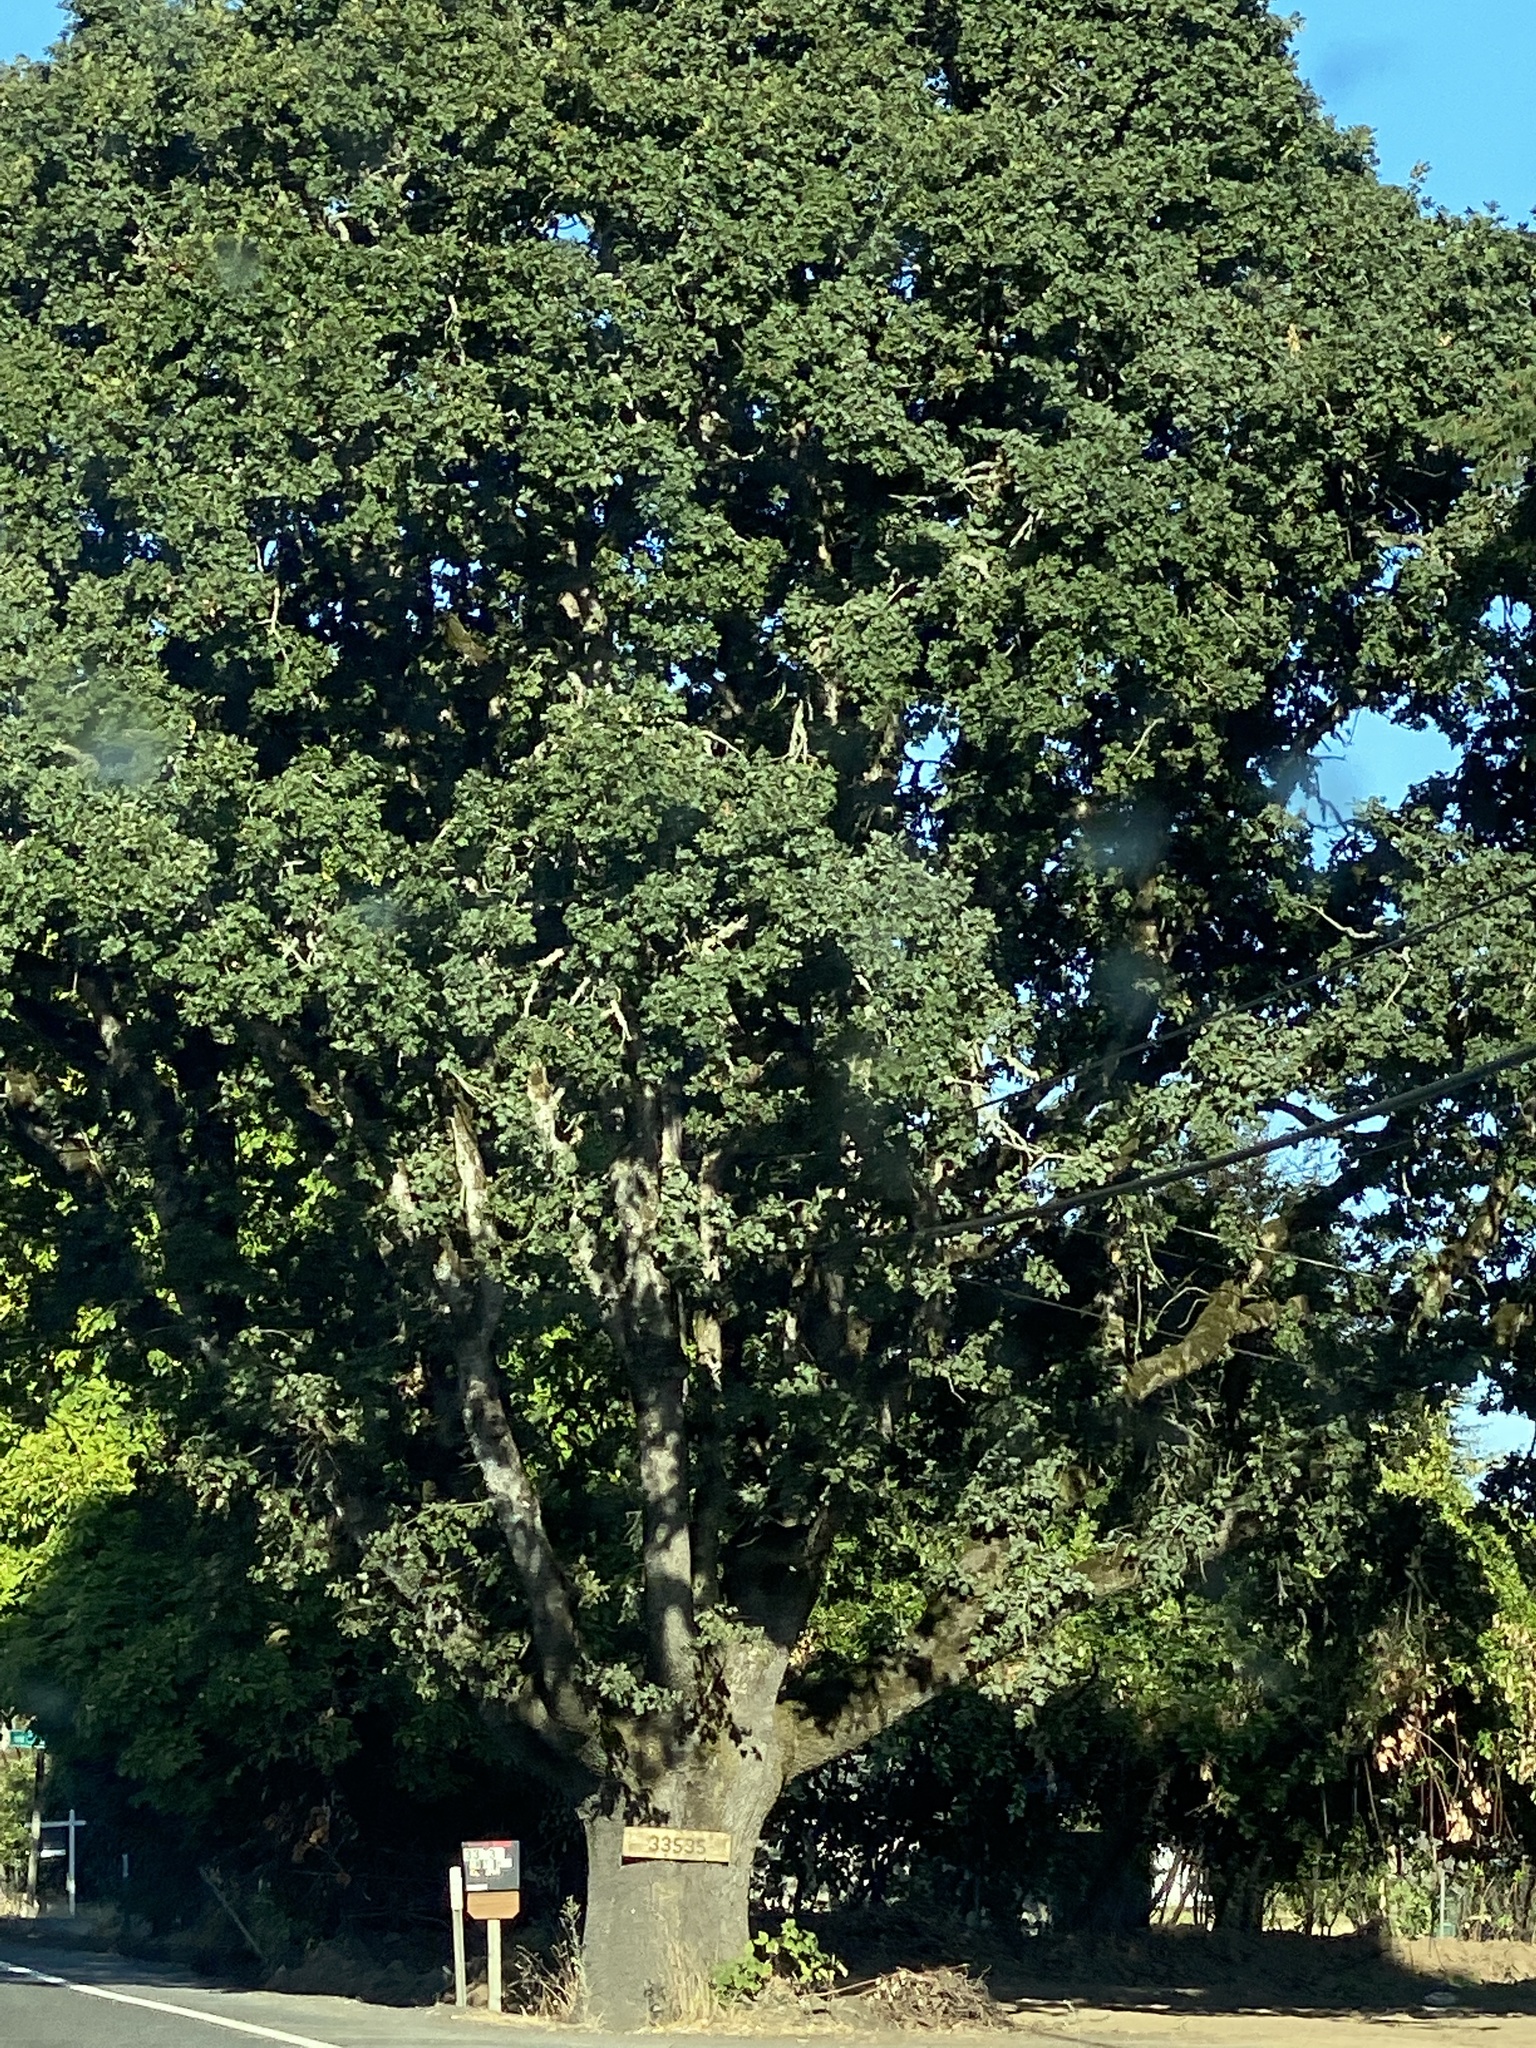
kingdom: Plantae
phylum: Tracheophyta
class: Magnoliopsida
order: Fagales
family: Fagaceae
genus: Quercus
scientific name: Quercus garryana
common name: Garry oak
